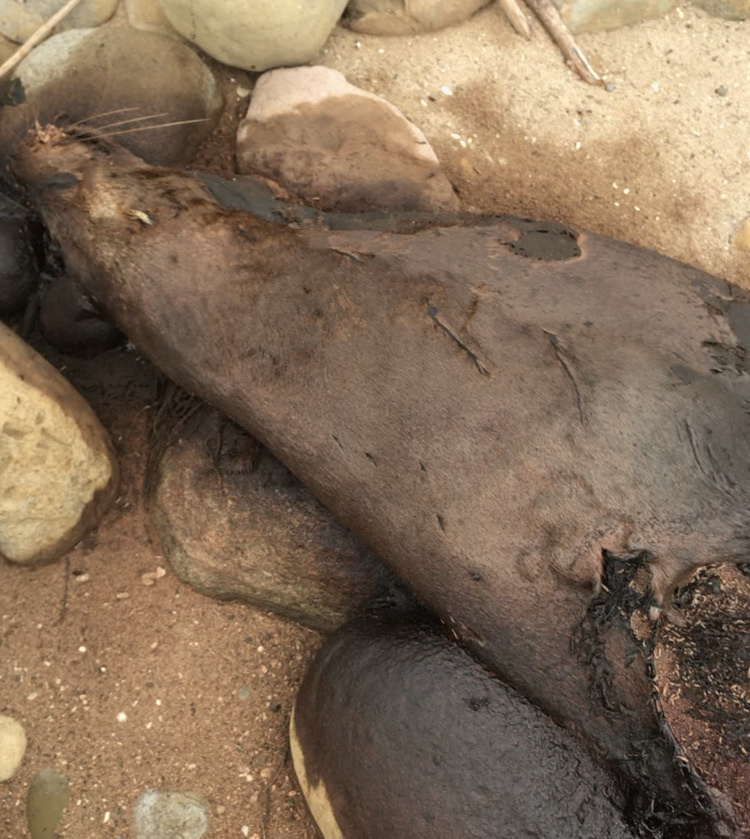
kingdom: Animalia
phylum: Chordata
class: Mammalia
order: Carnivora
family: Otariidae
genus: Zalophus
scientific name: Zalophus californianus
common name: California sea lion
